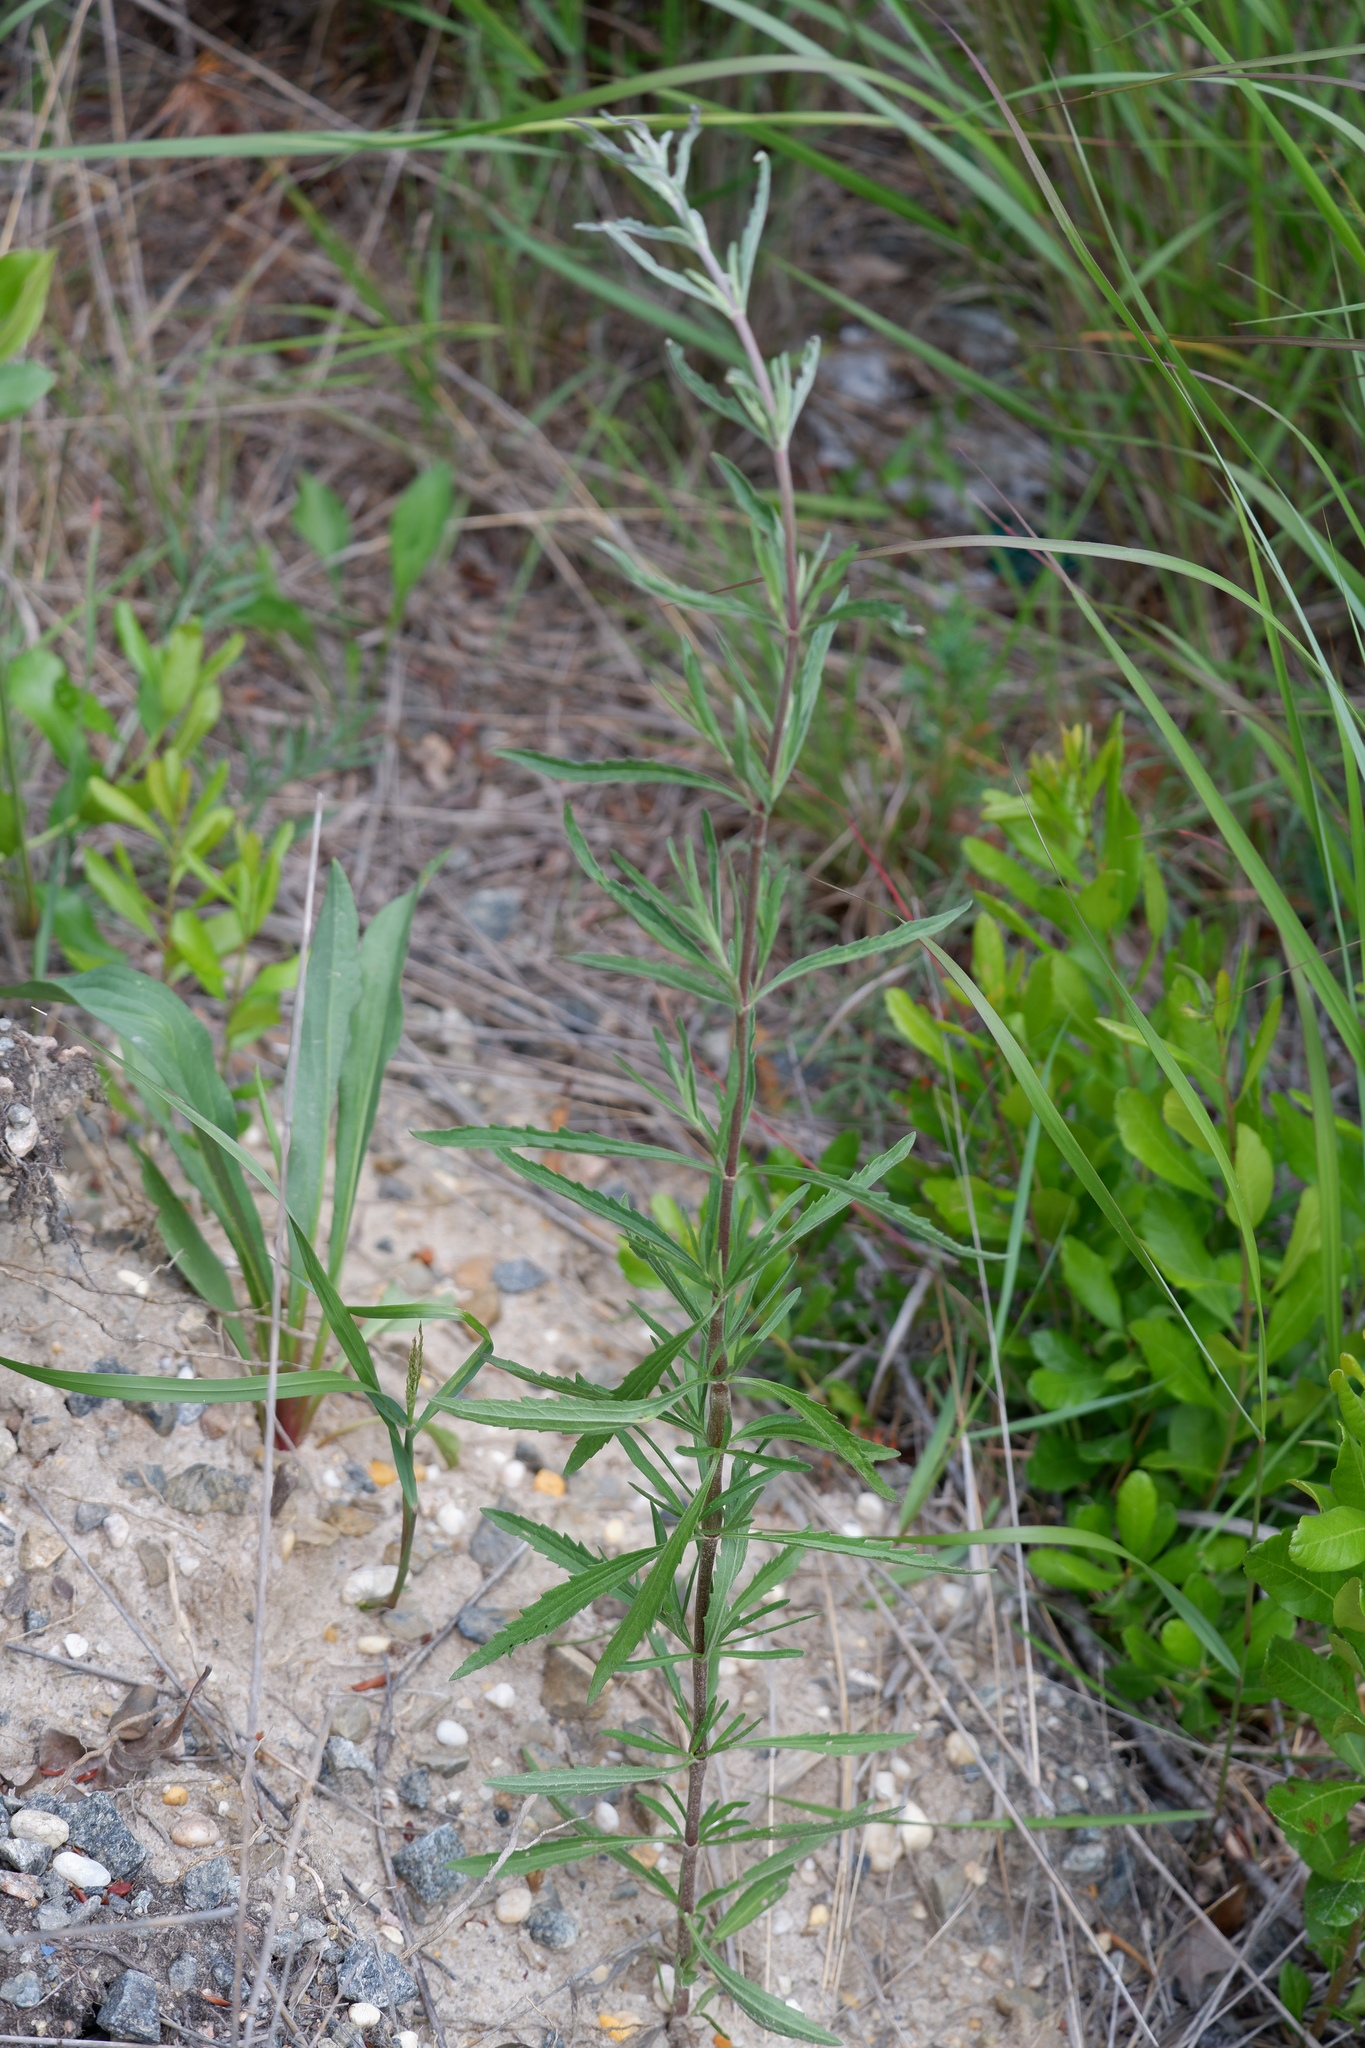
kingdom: Plantae
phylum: Tracheophyta
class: Magnoliopsida
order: Asterales
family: Asteraceae
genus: Eupatorium
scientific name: Eupatorium torreyanum
